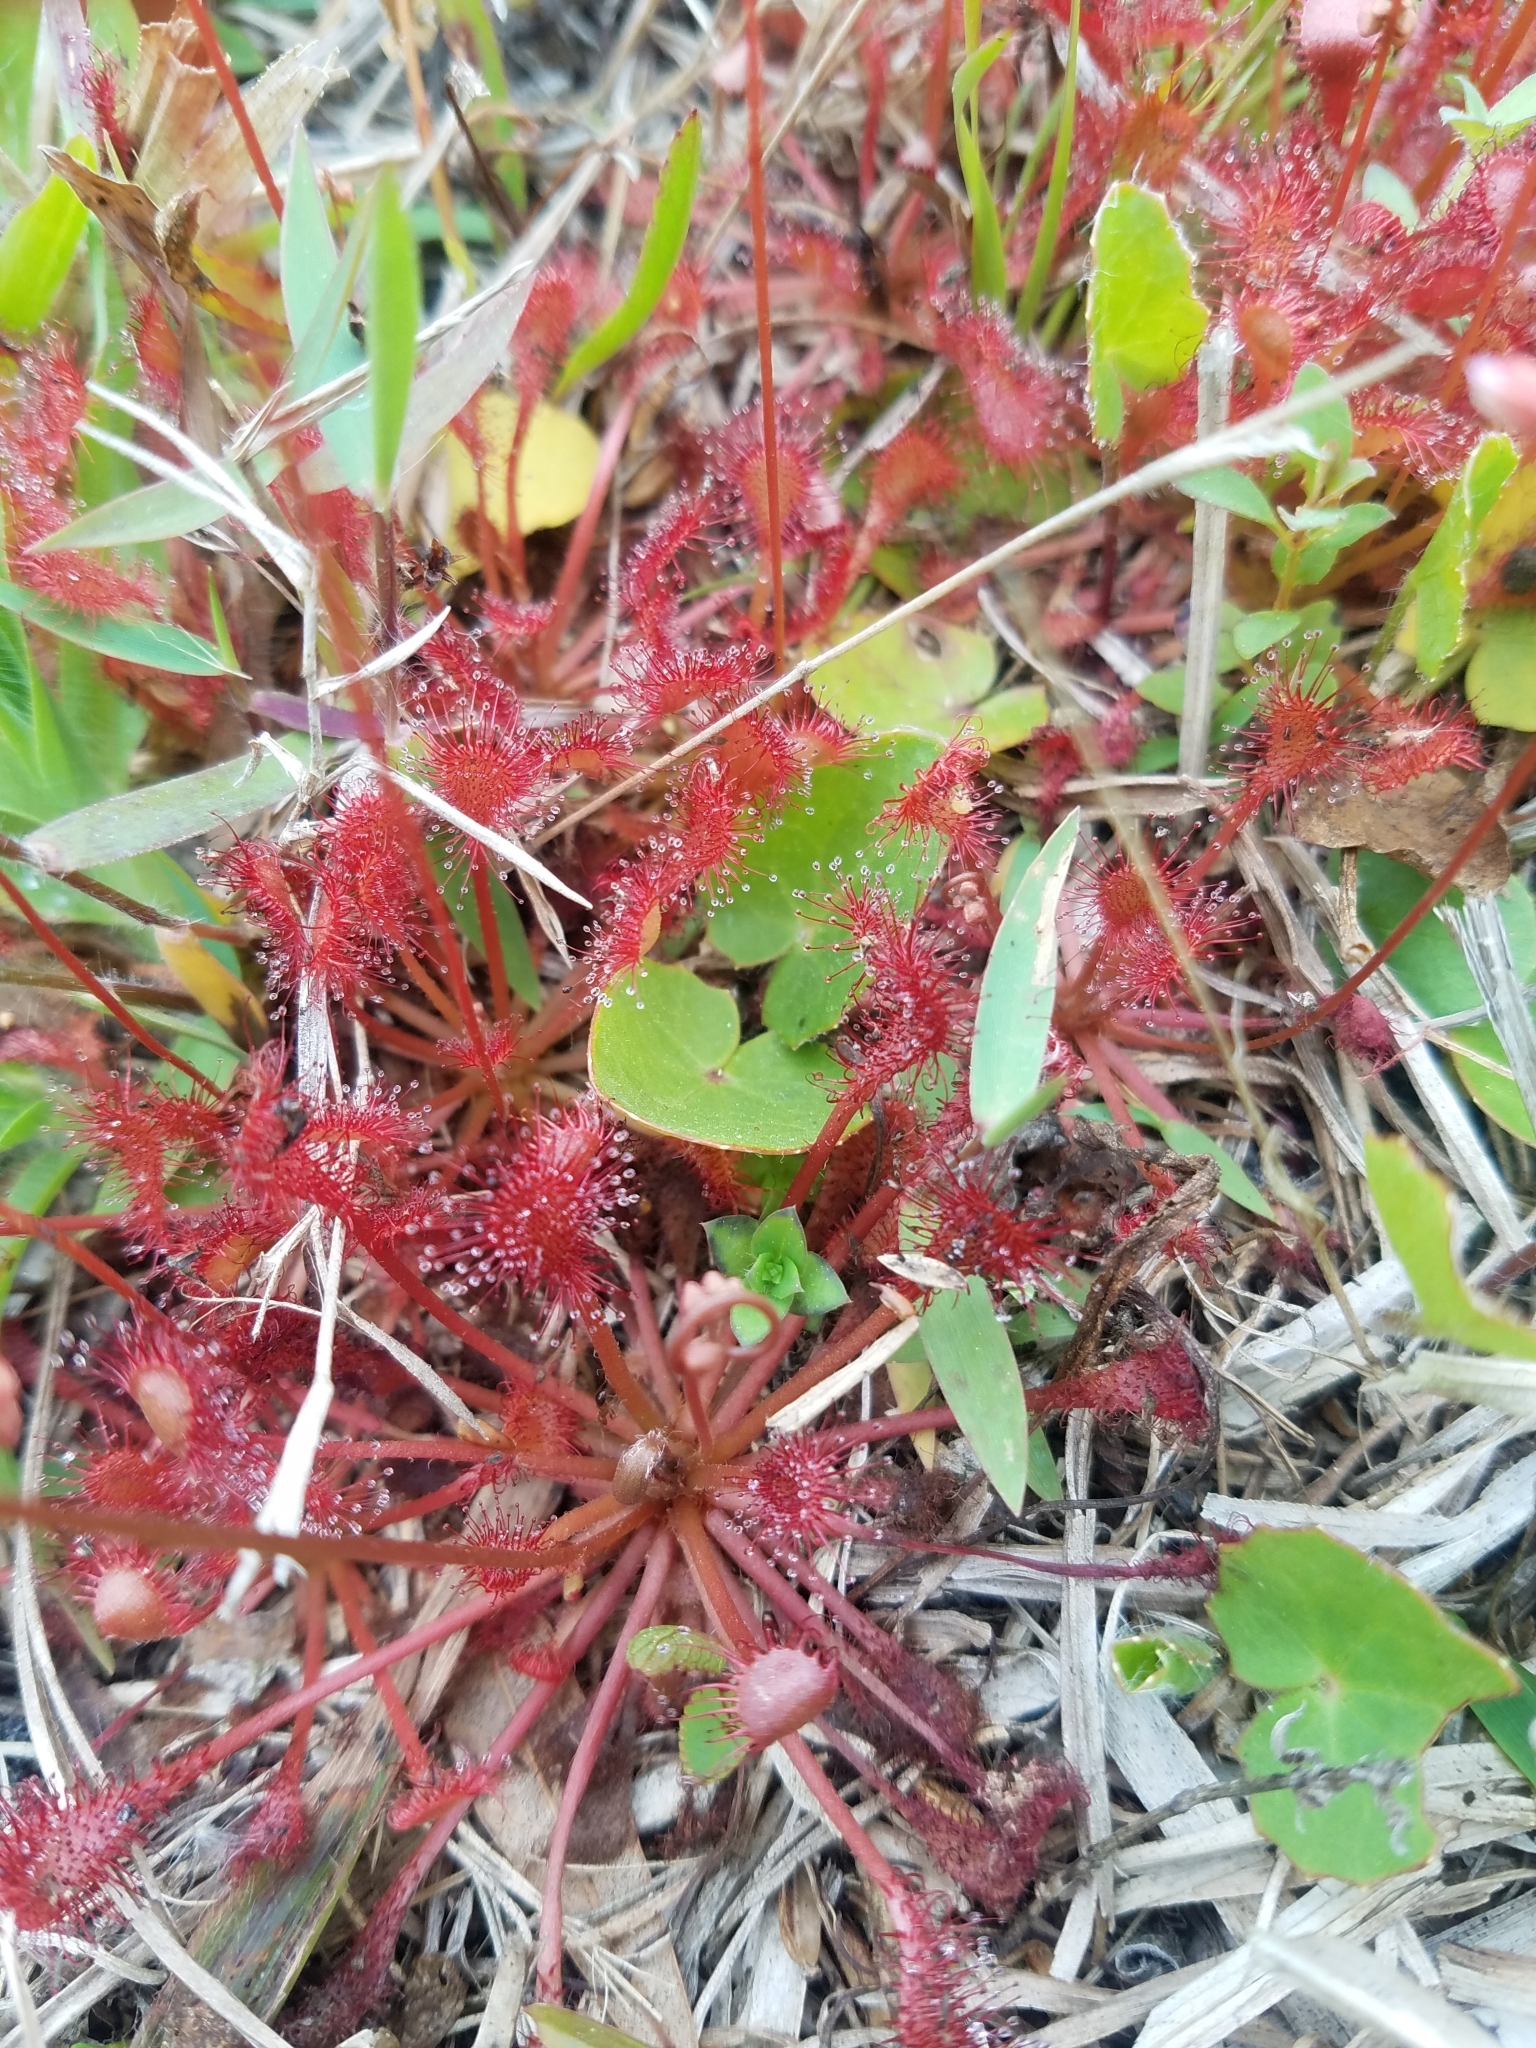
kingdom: Plantae
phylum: Tracheophyta
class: Magnoliopsida
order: Caryophyllales
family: Droseraceae
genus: Drosera
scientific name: Drosera capillaris
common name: Pink sundew
